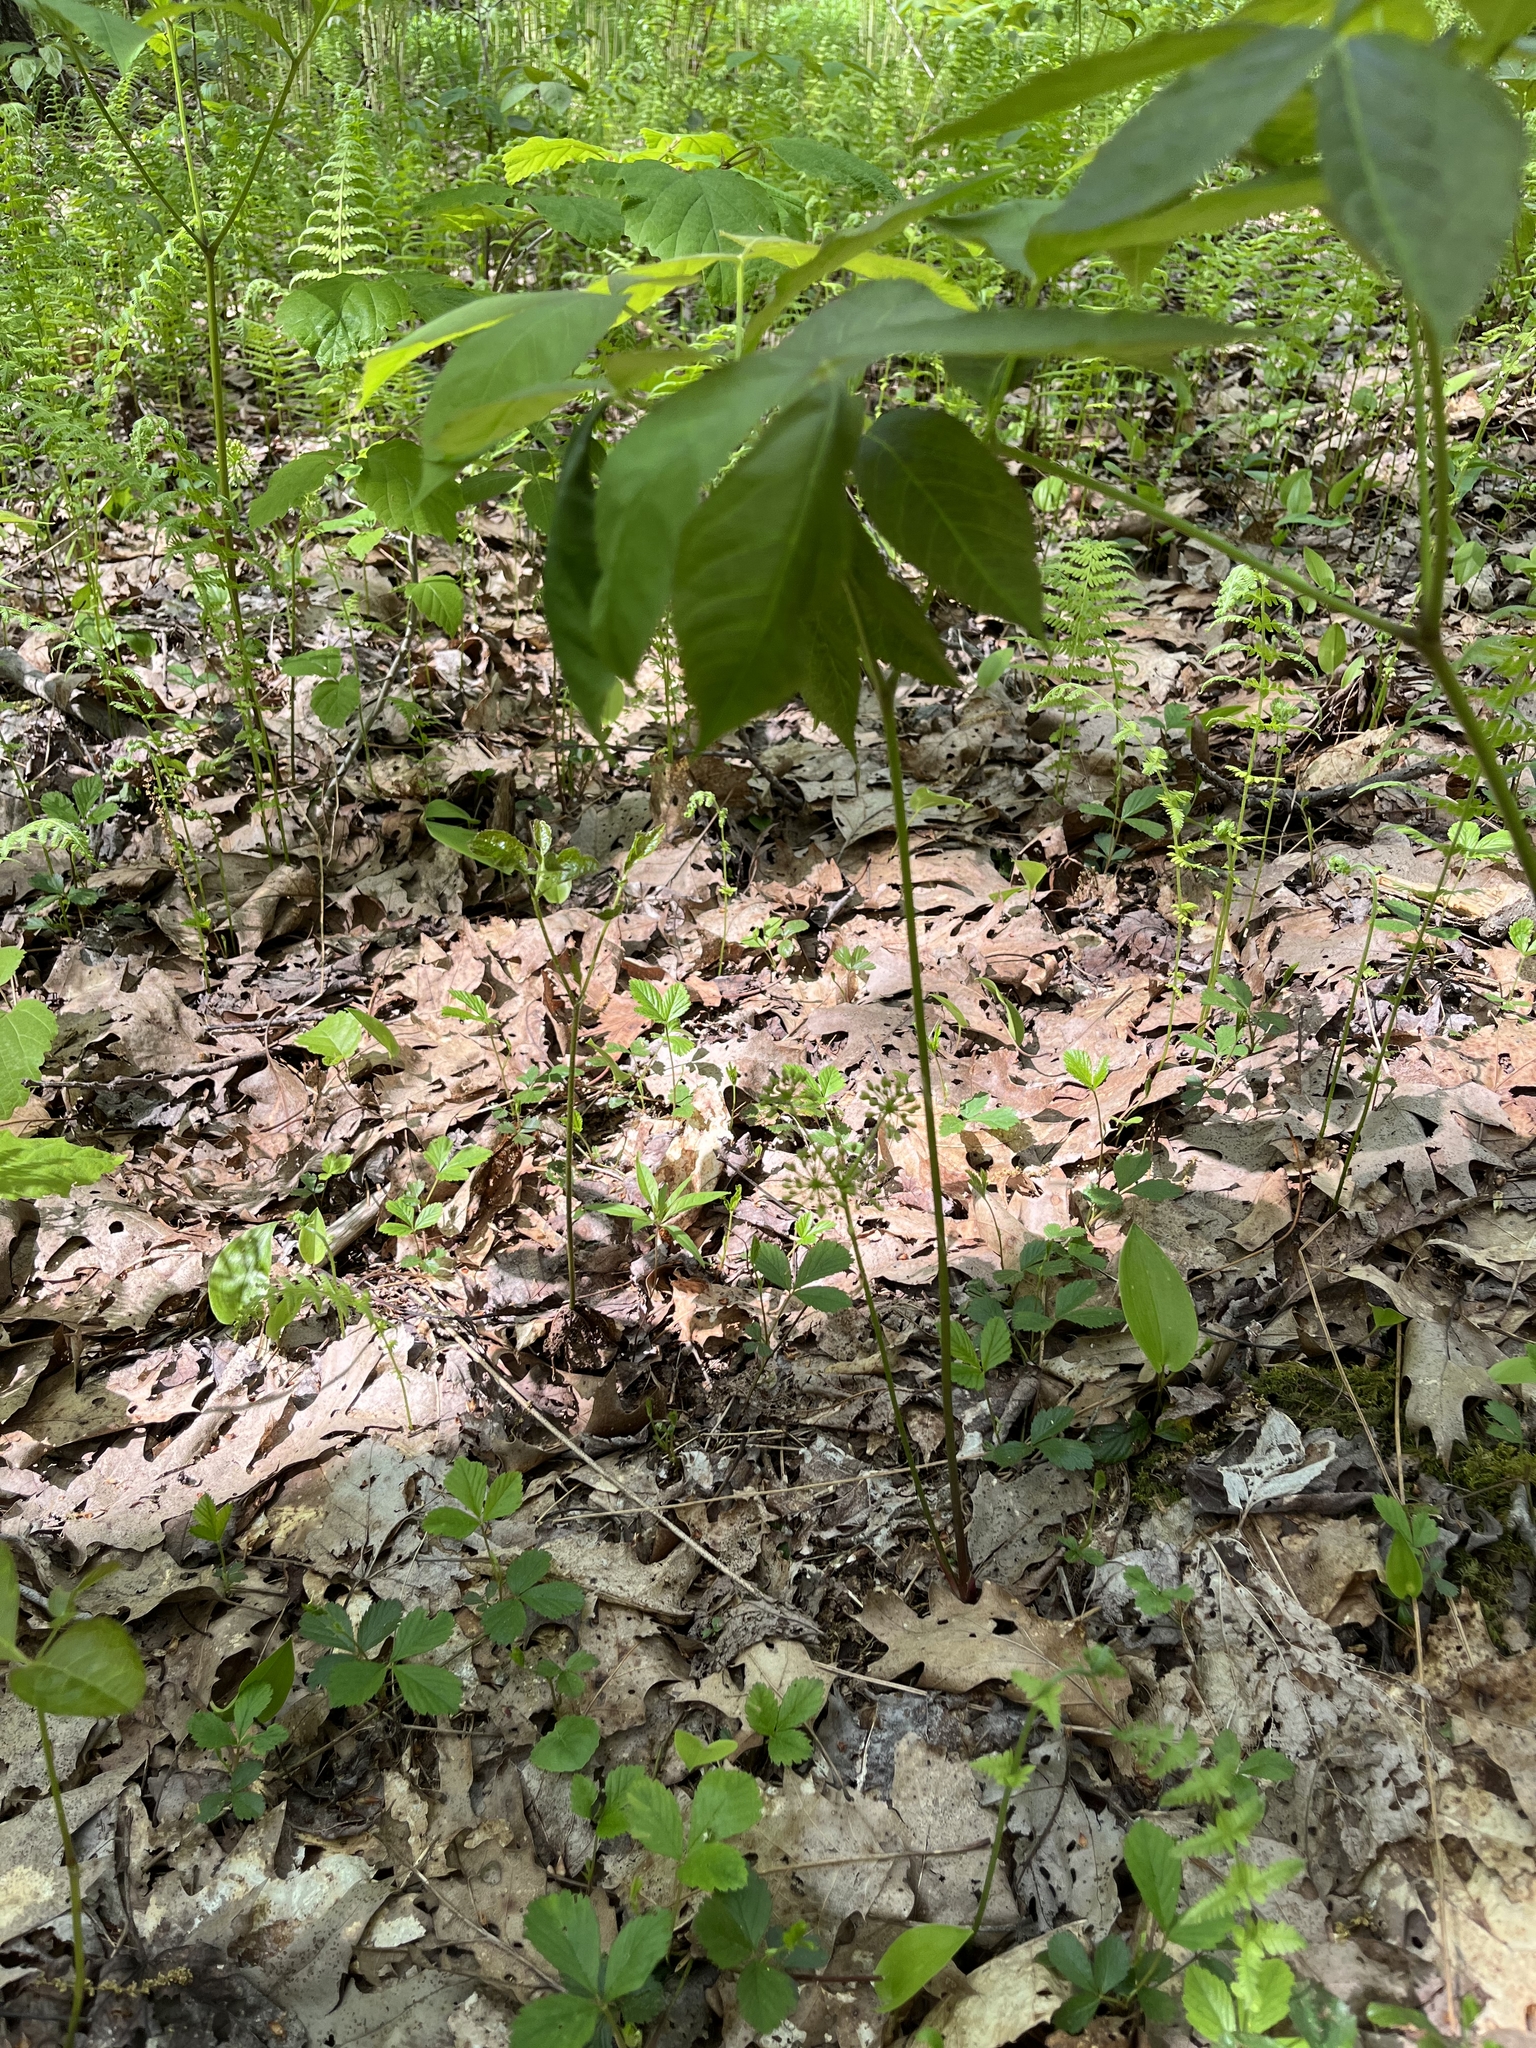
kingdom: Plantae
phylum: Tracheophyta
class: Magnoliopsida
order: Apiales
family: Araliaceae
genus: Aralia
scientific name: Aralia nudicaulis
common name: Wild sarsaparilla
